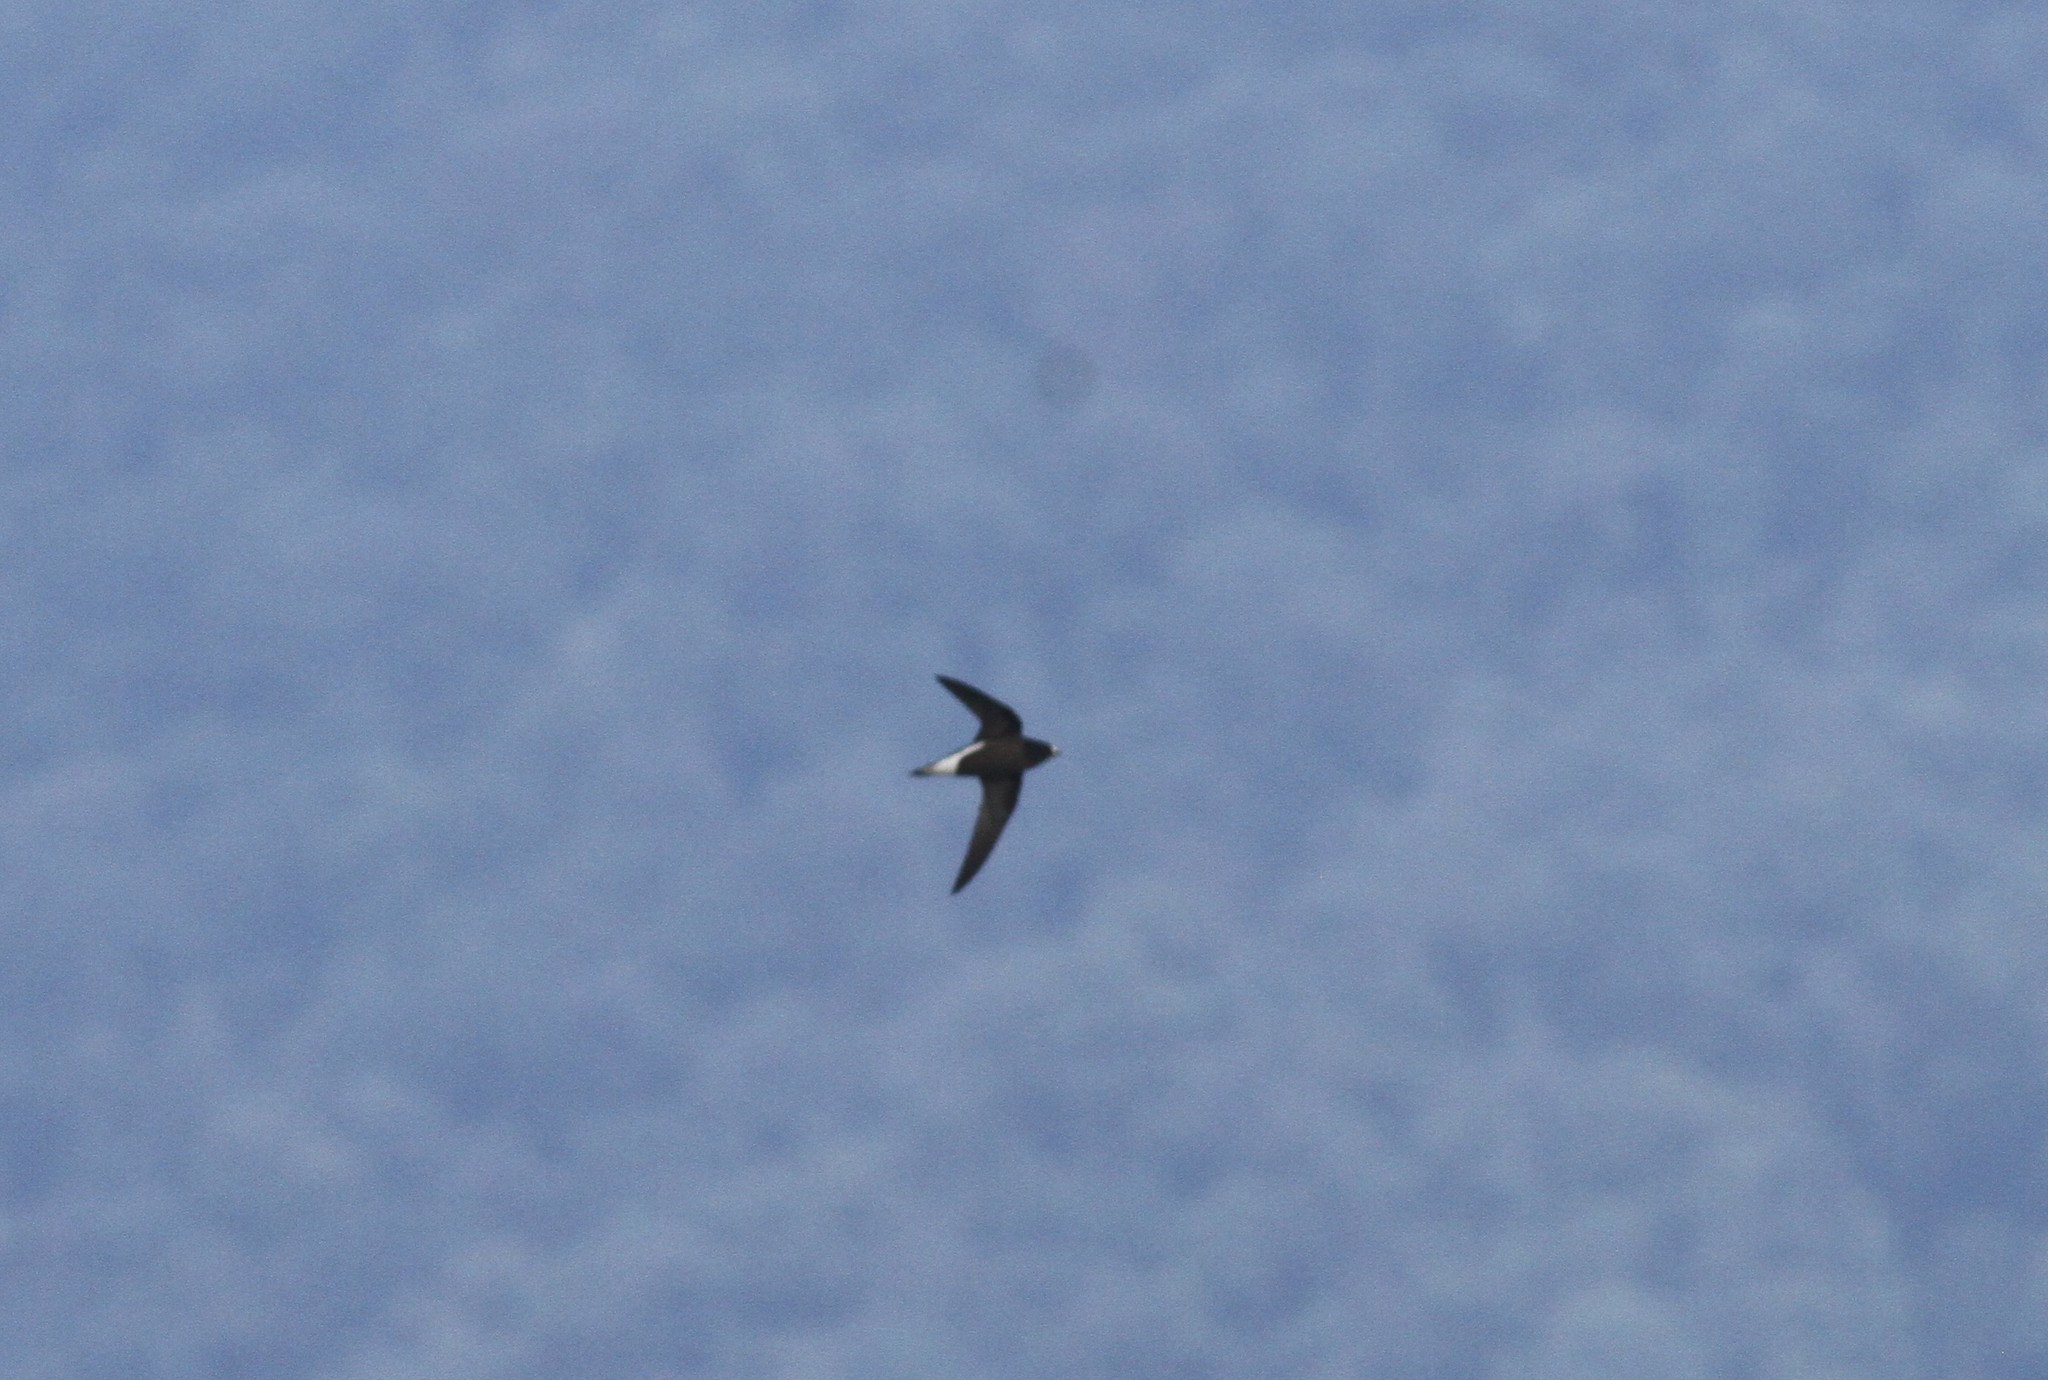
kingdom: Animalia
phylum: Chordata
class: Aves
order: Apodiformes
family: Apodidae
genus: Hirundapus
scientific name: Hirundapus giganteus
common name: Brown-backed needletail
